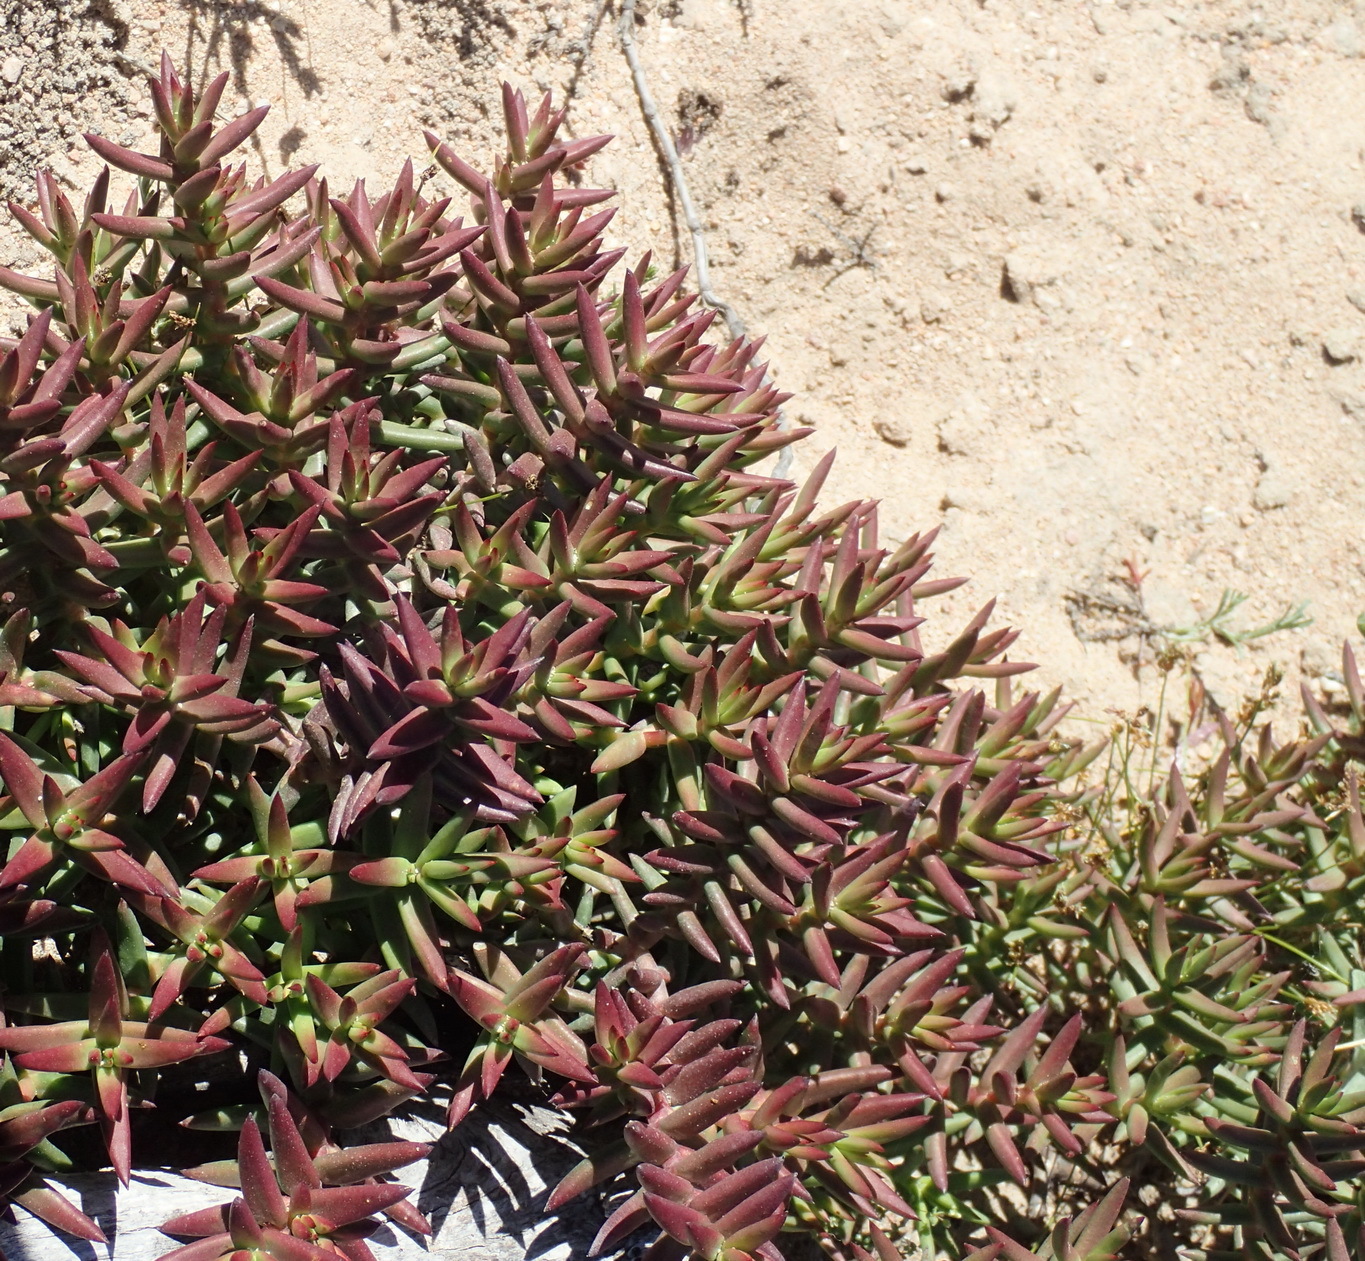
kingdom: Plantae
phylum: Tracheophyta
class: Magnoliopsida
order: Saxifragales
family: Crassulaceae
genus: Crassula
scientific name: Crassula tetragona
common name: Pygmyweed
